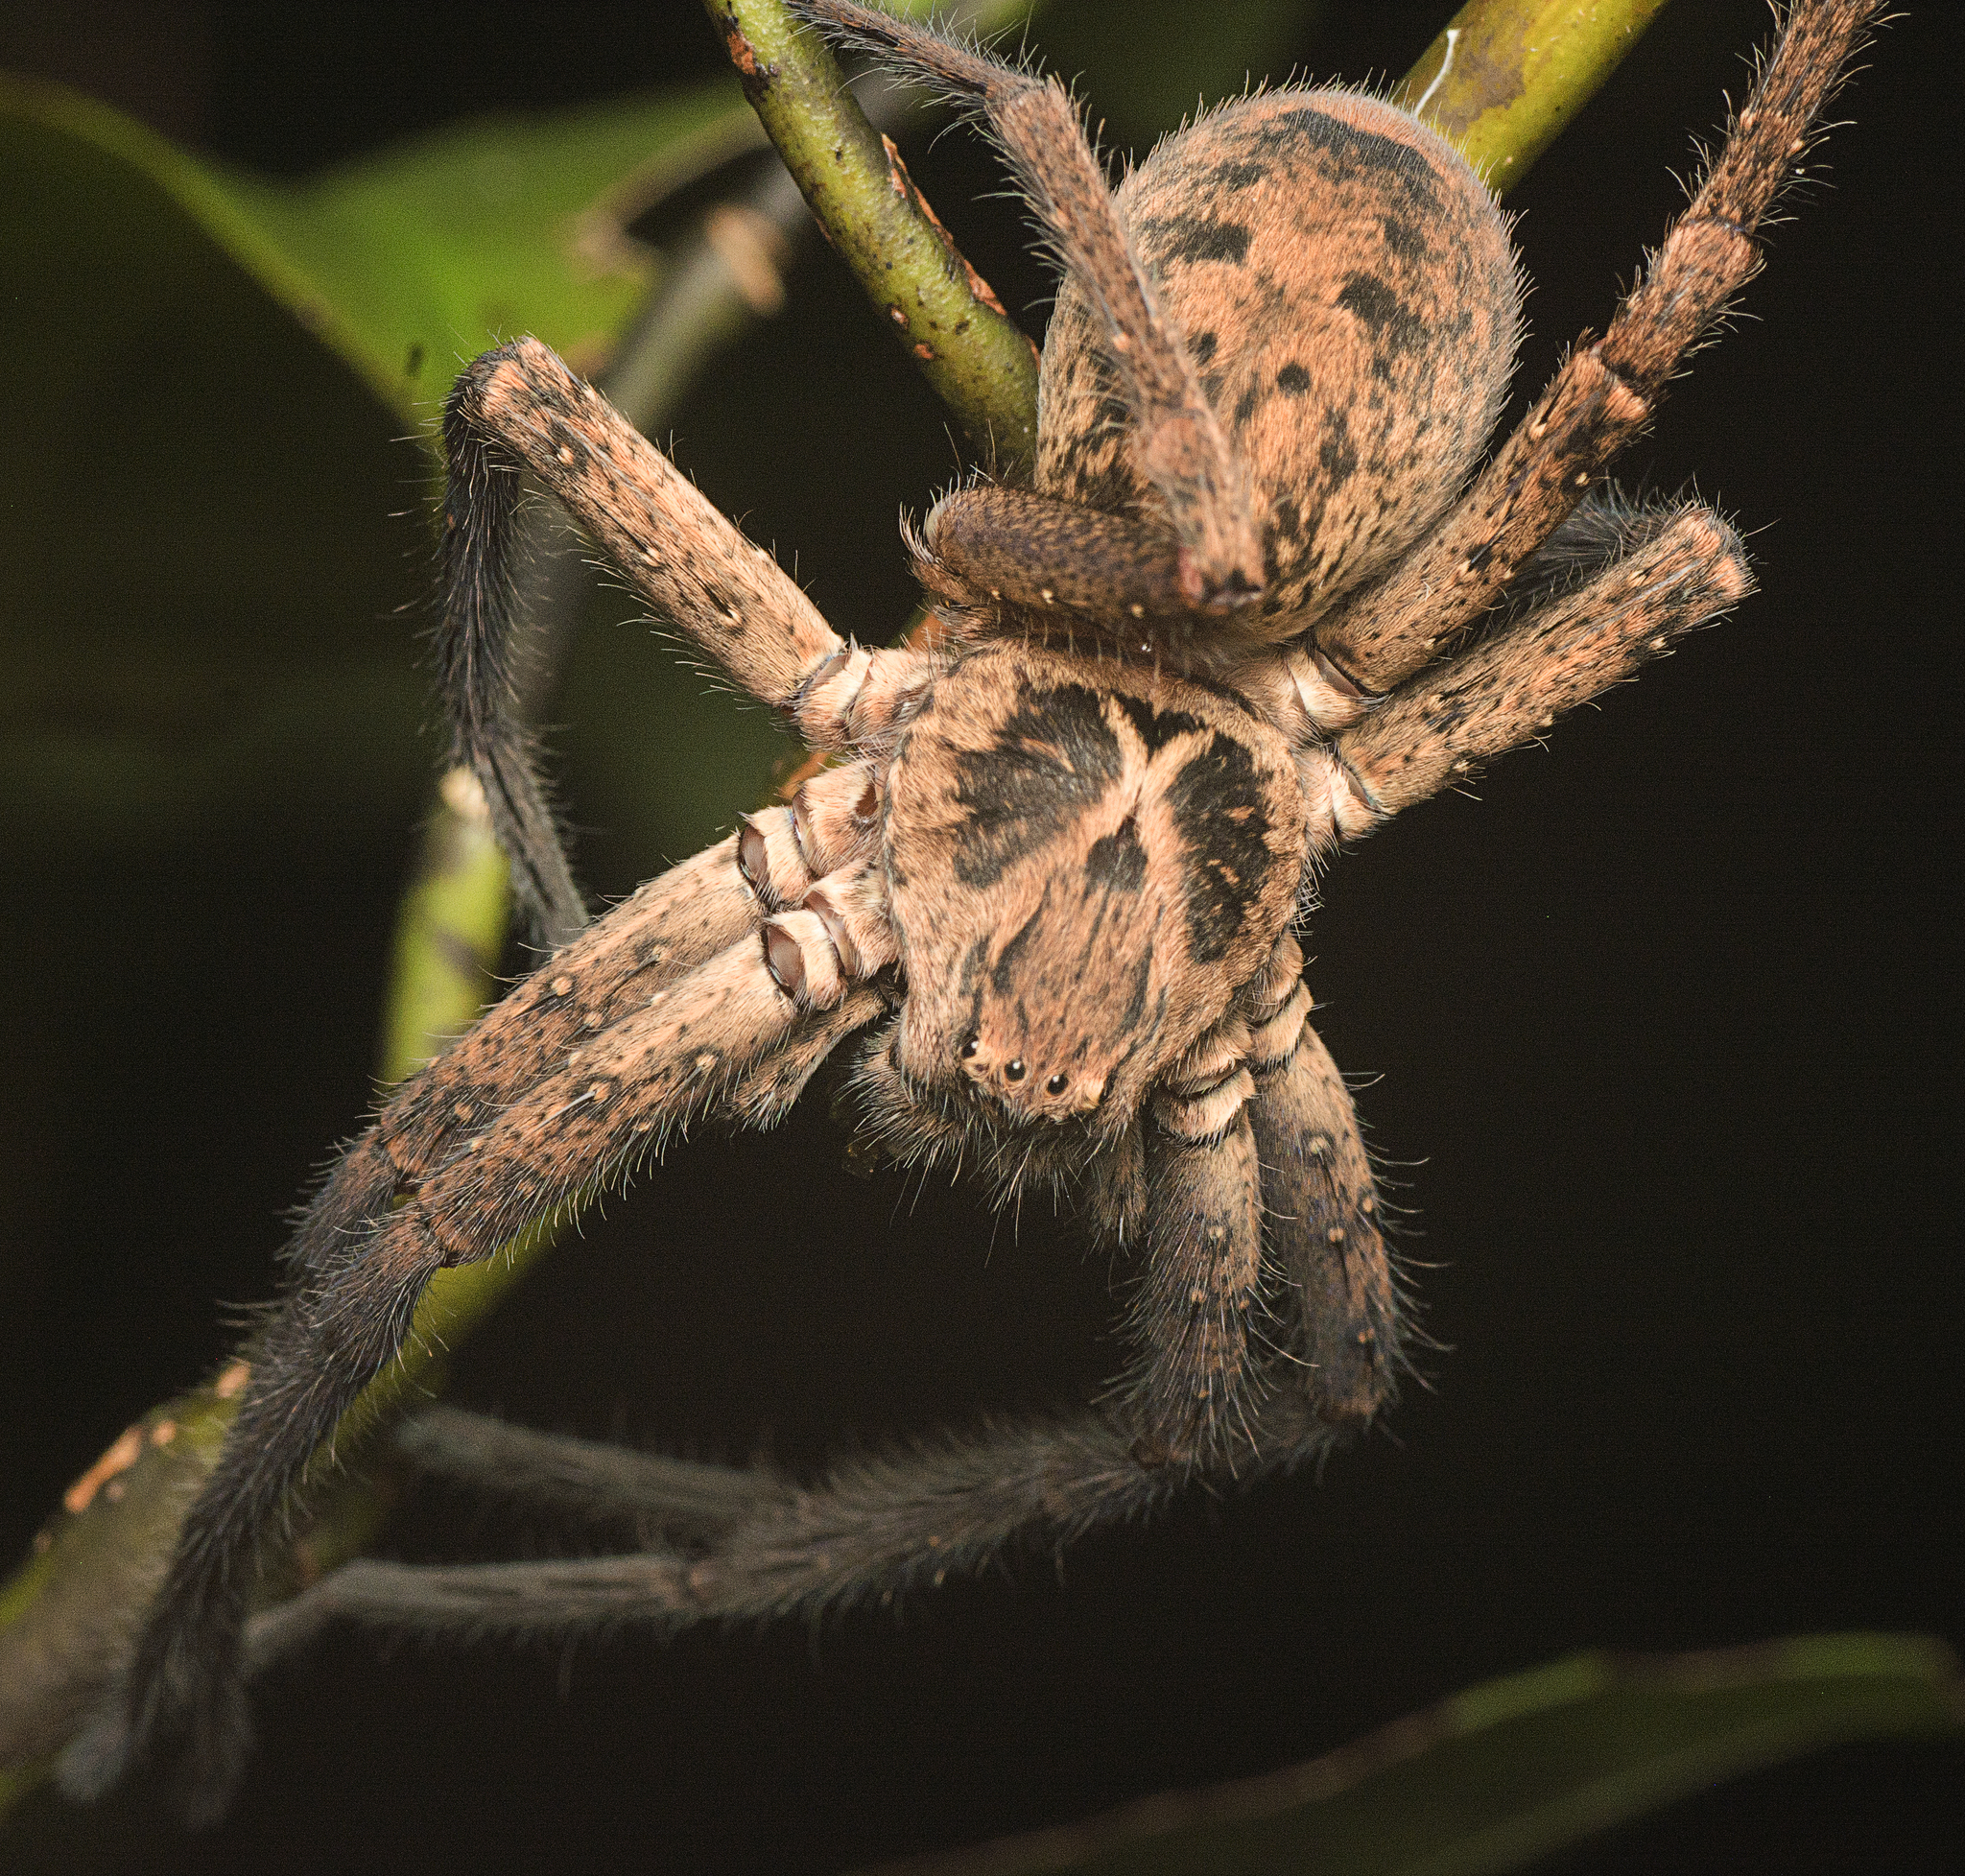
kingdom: Animalia
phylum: Arthropoda
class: Arachnida
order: Araneae
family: Sparassidae
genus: Heteropoda
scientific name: Heteropoda hillerae
